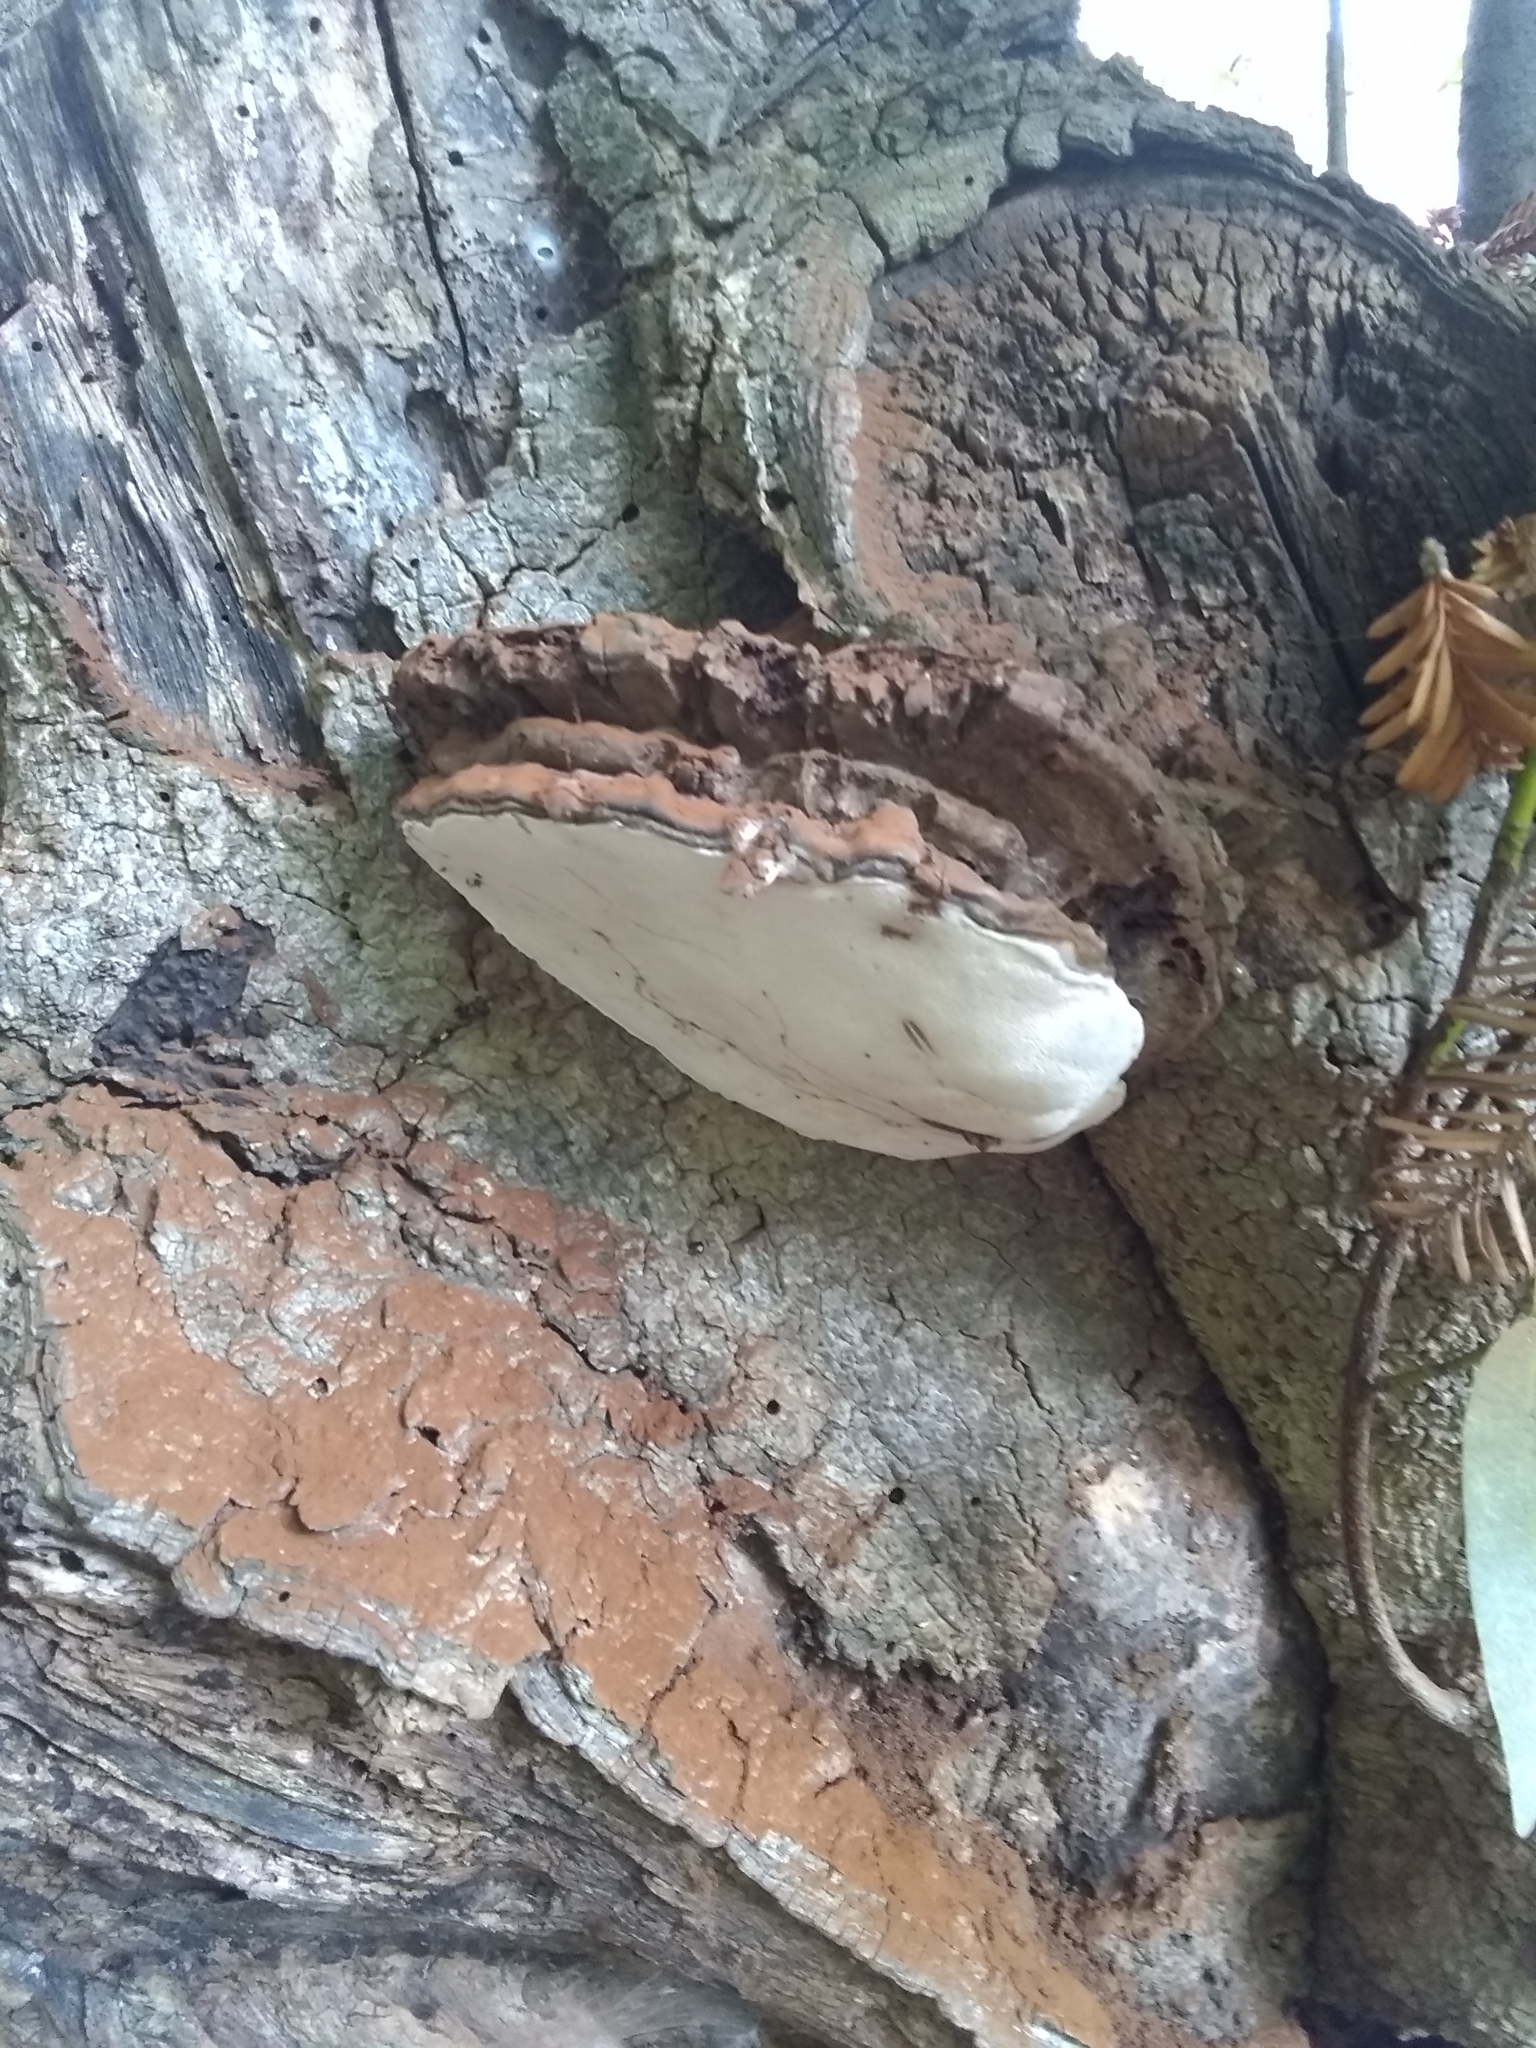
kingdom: Fungi
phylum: Basidiomycota
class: Agaricomycetes
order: Polyporales
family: Polyporaceae
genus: Ganoderma
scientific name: Ganoderma brownii
